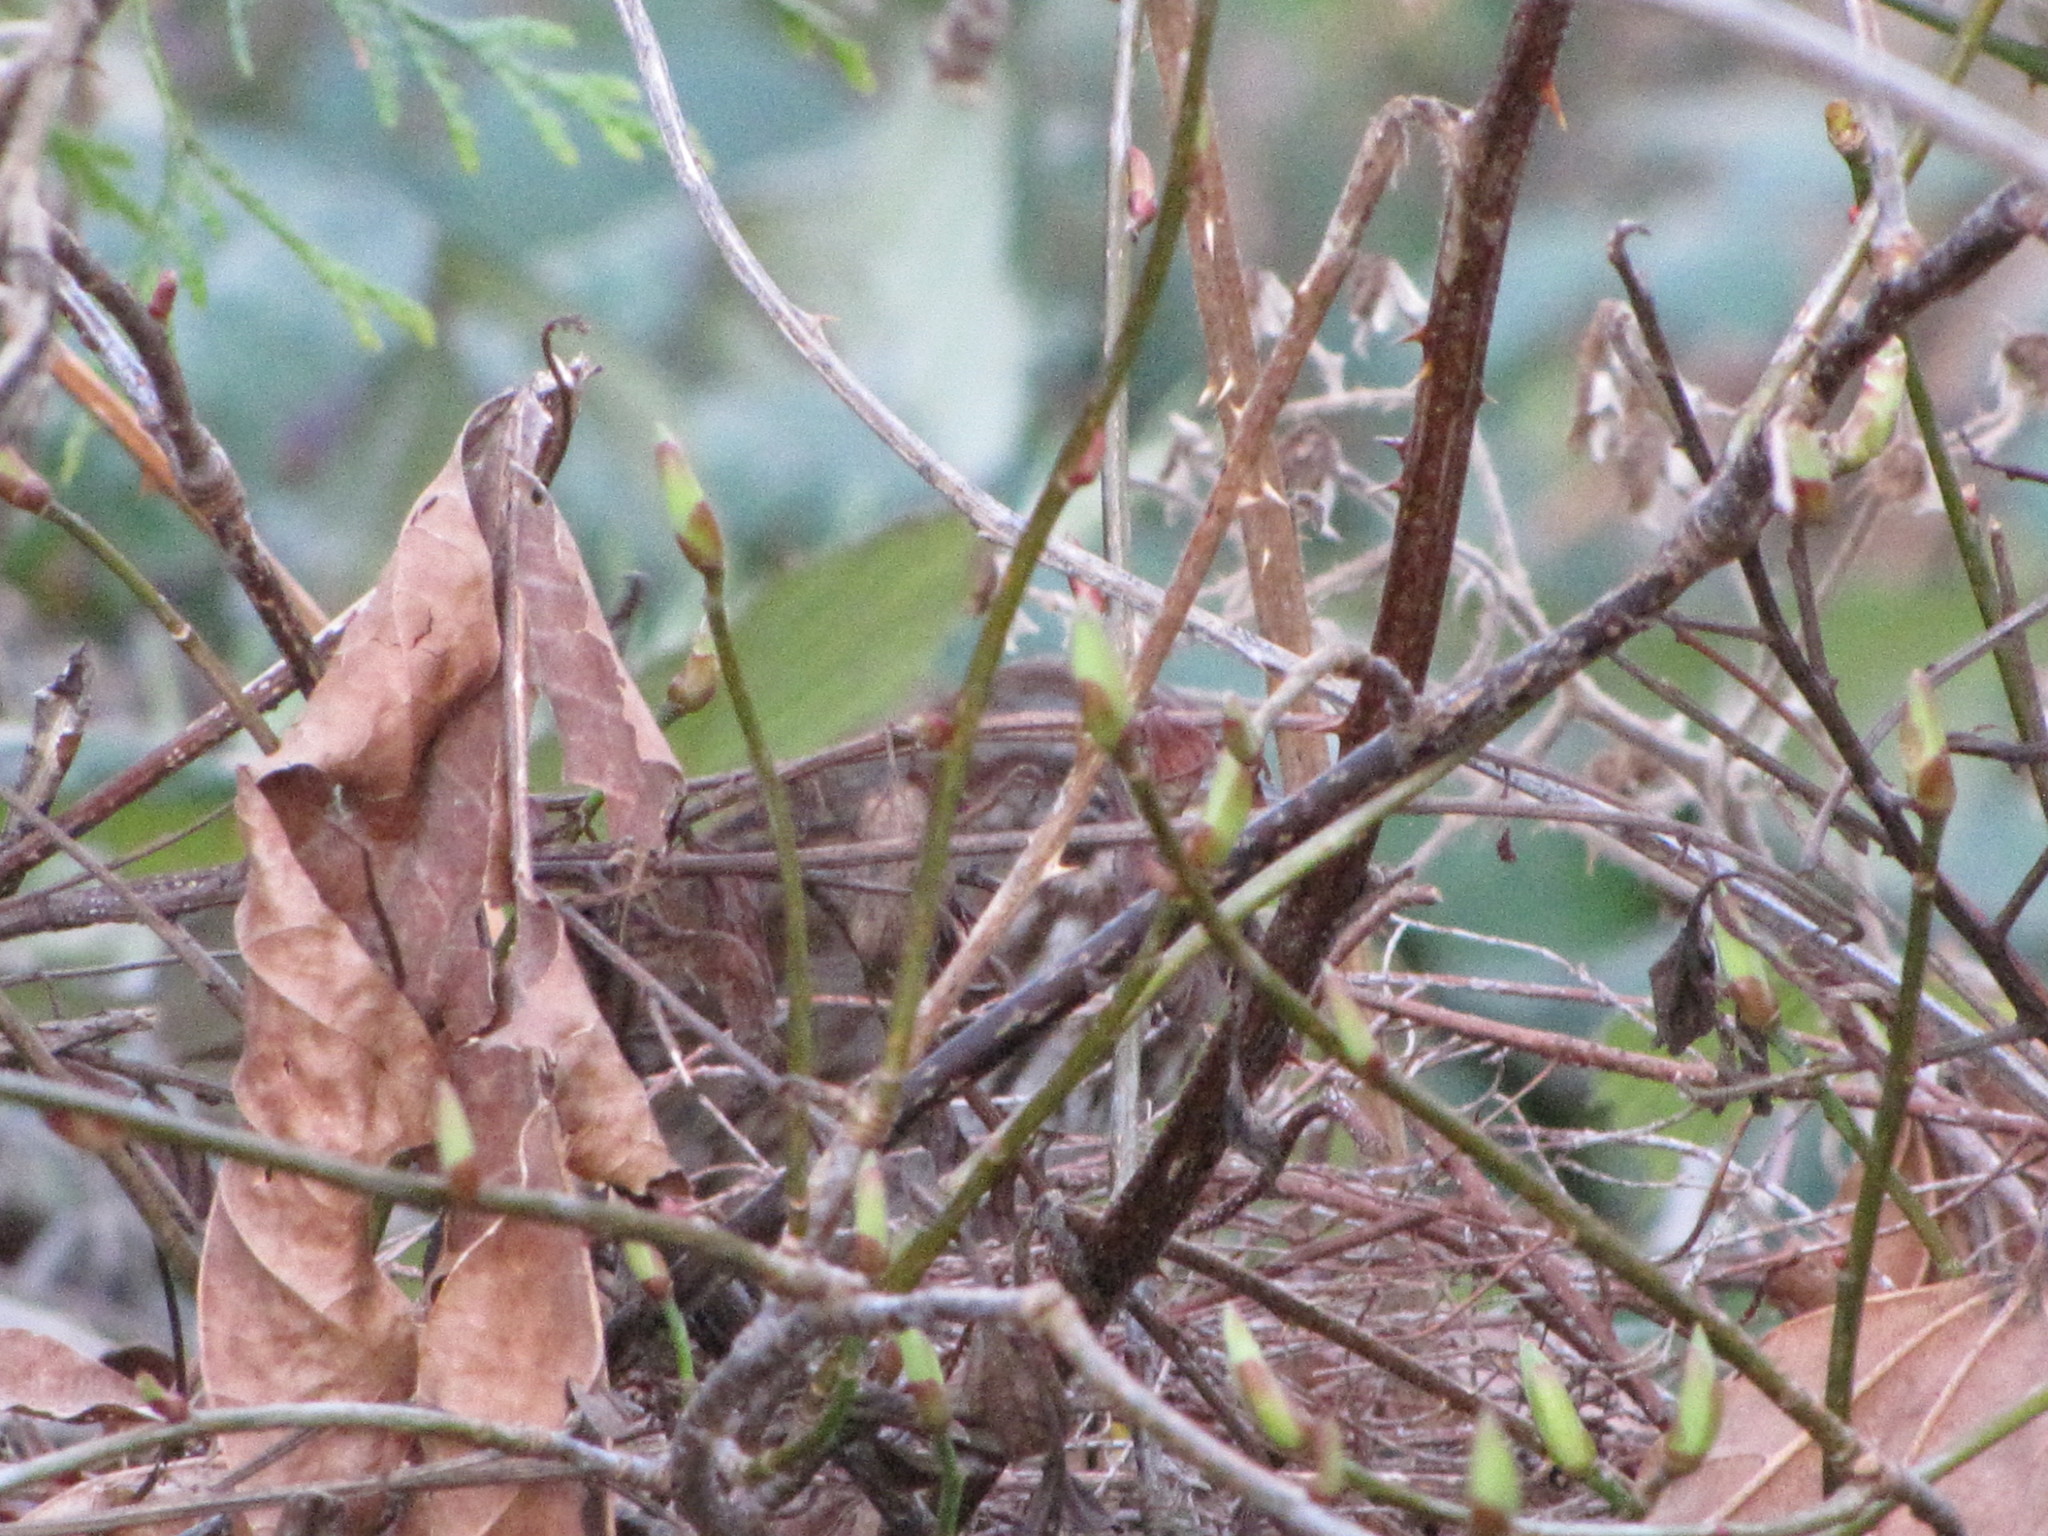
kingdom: Animalia
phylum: Chordata
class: Aves
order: Passeriformes
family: Passerellidae
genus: Melospiza
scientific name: Melospiza melodia
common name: Song sparrow
